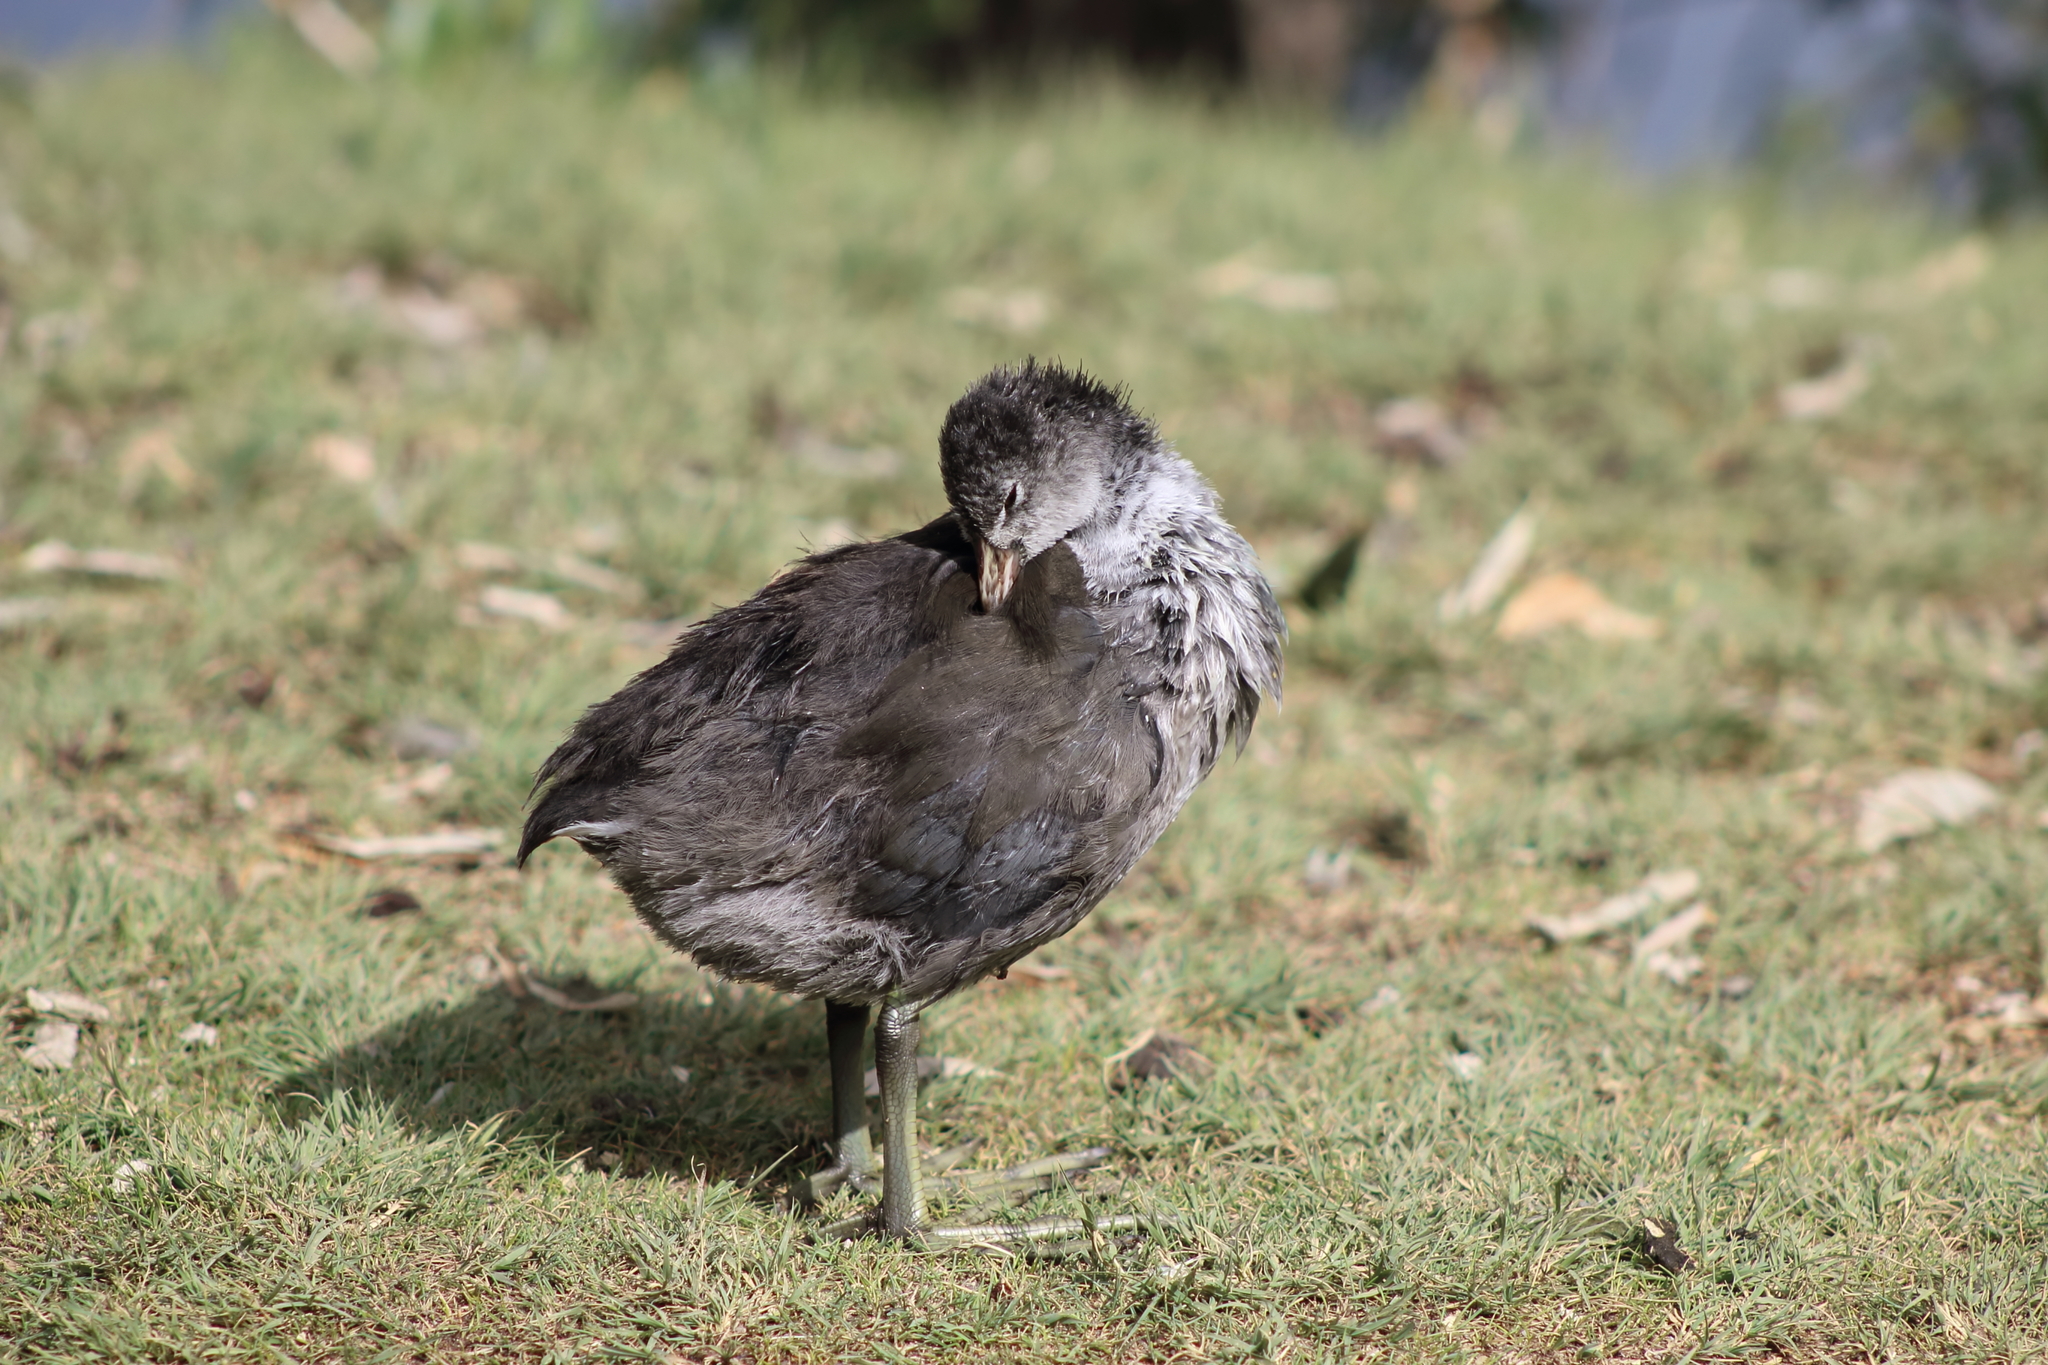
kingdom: Animalia
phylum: Chordata
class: Aves
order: Gruiformes
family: Rallidae
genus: Fulica
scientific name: Fulica americana
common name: American coot
